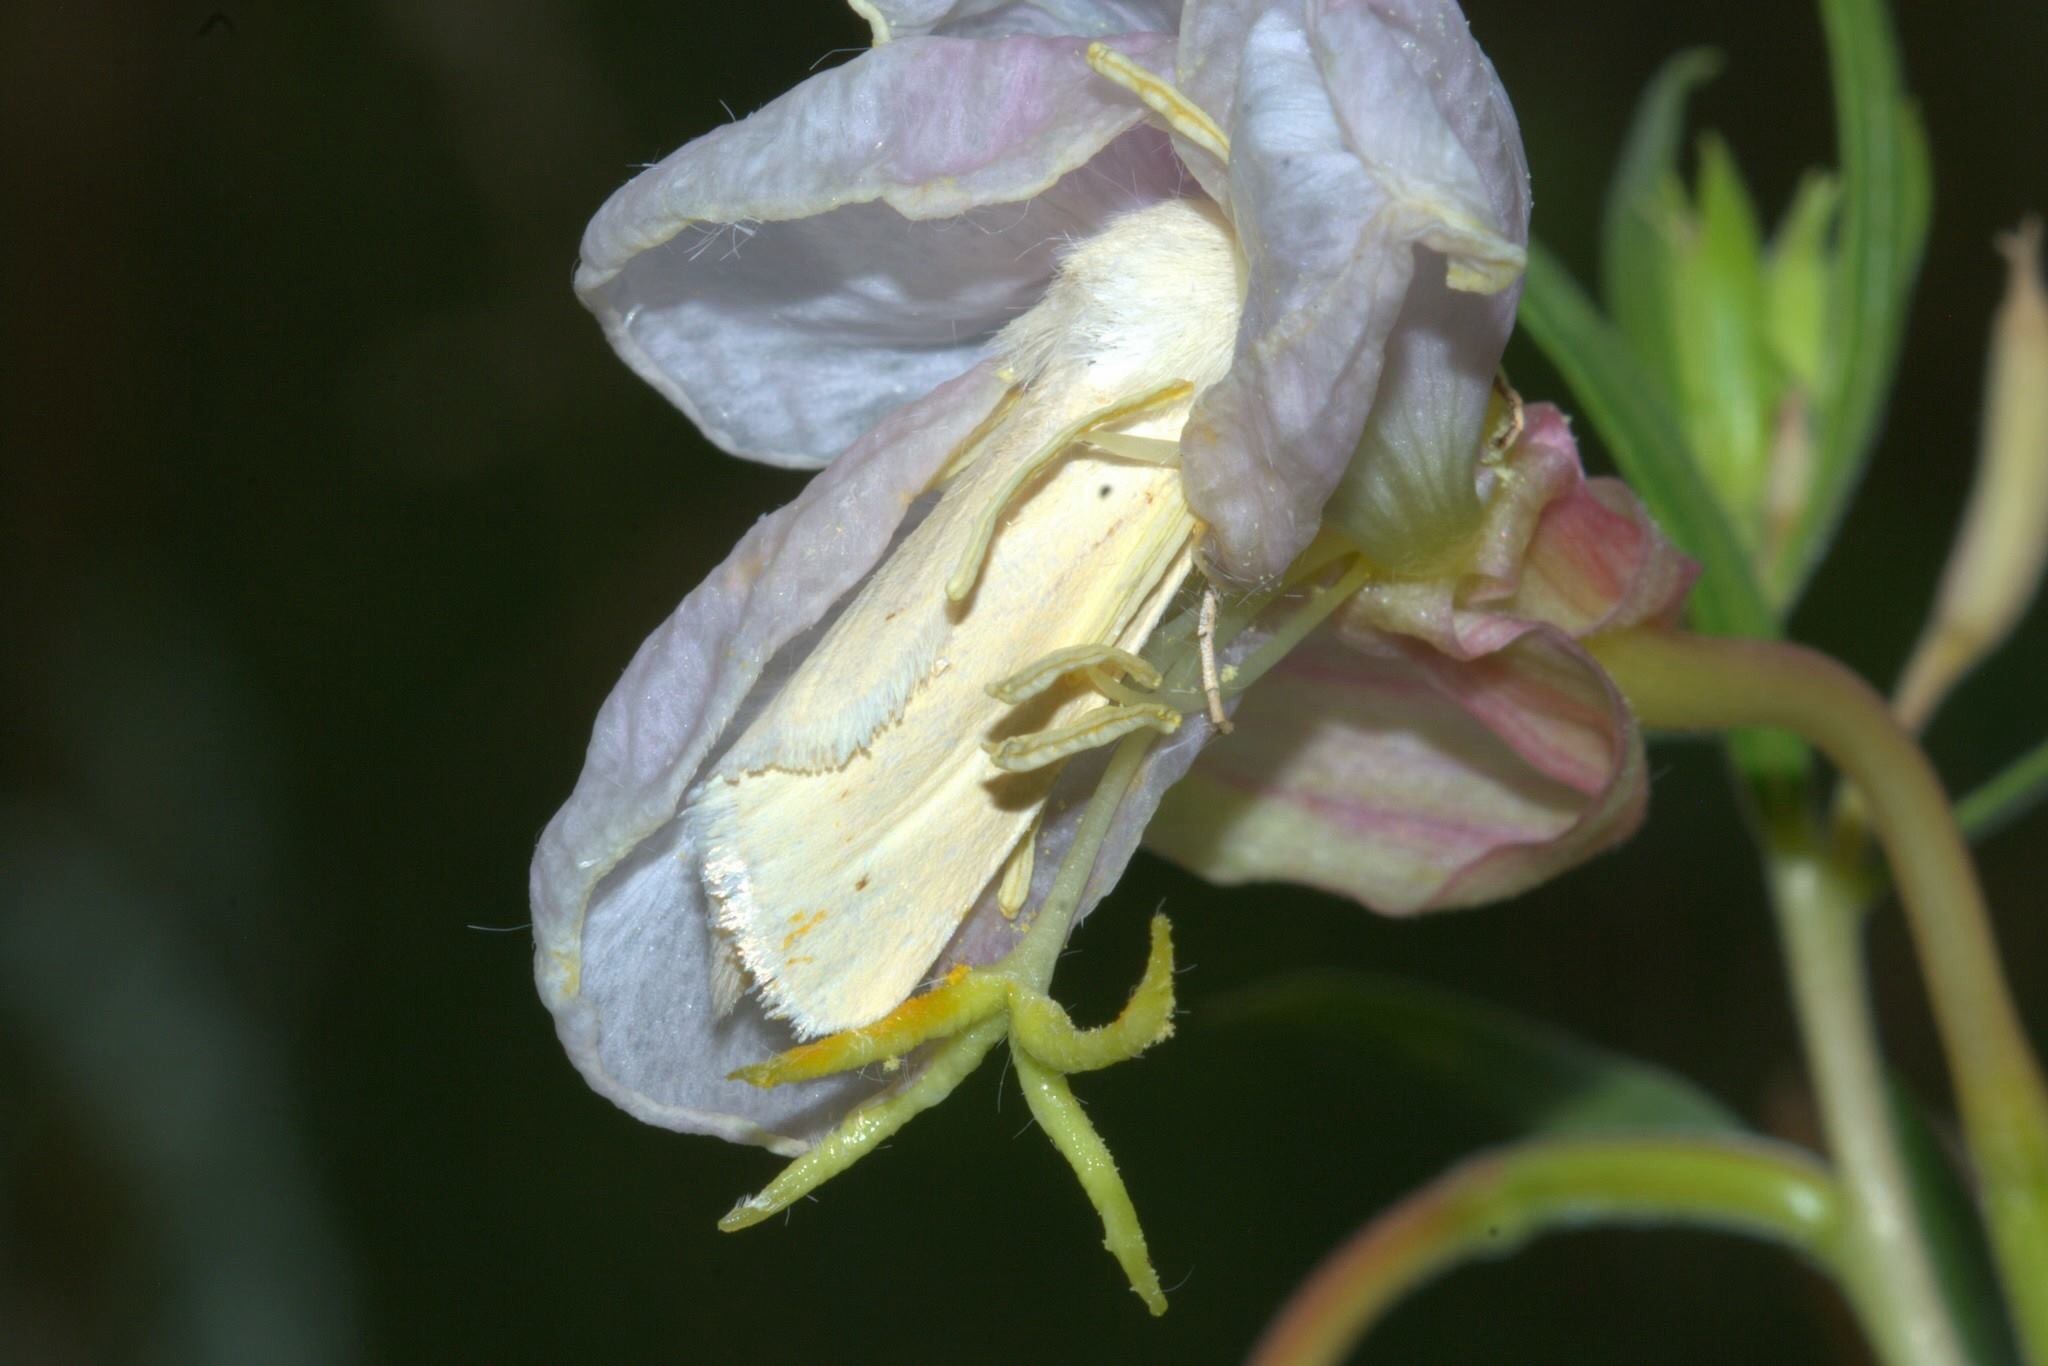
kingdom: Animalia
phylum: Arthropoda
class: Insecta
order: Lepidoptera
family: Noctuidae
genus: Copablepharon
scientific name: Copablepharon grandis
